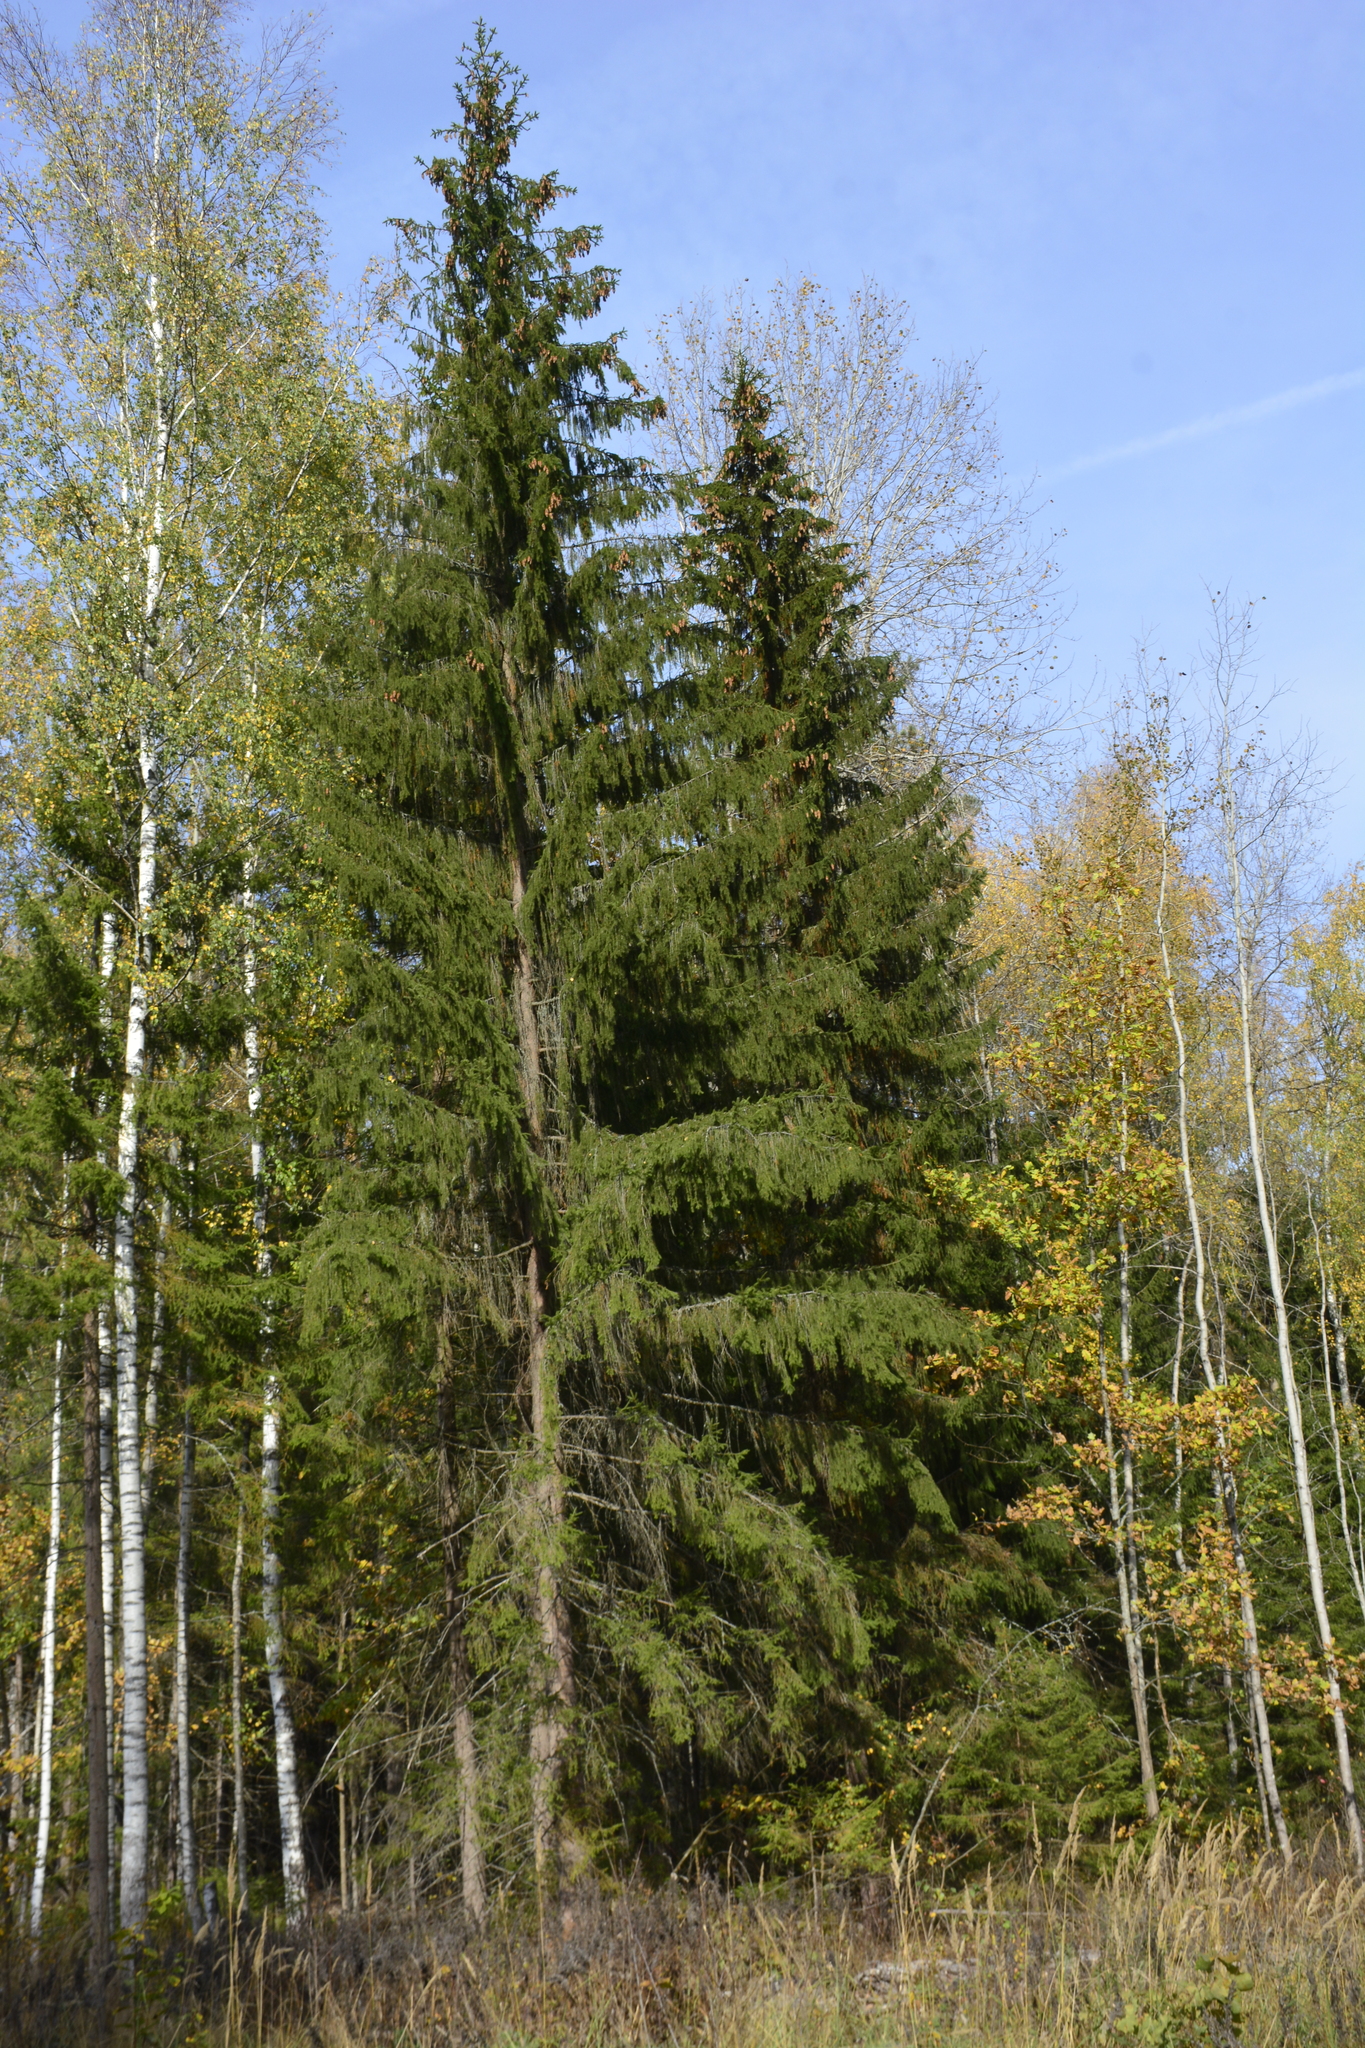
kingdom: Plantae
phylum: Tracheophyta
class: Pinopsida
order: Pinales
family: Pinaceae
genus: Picea
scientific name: Picea abies
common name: Norway spruce
